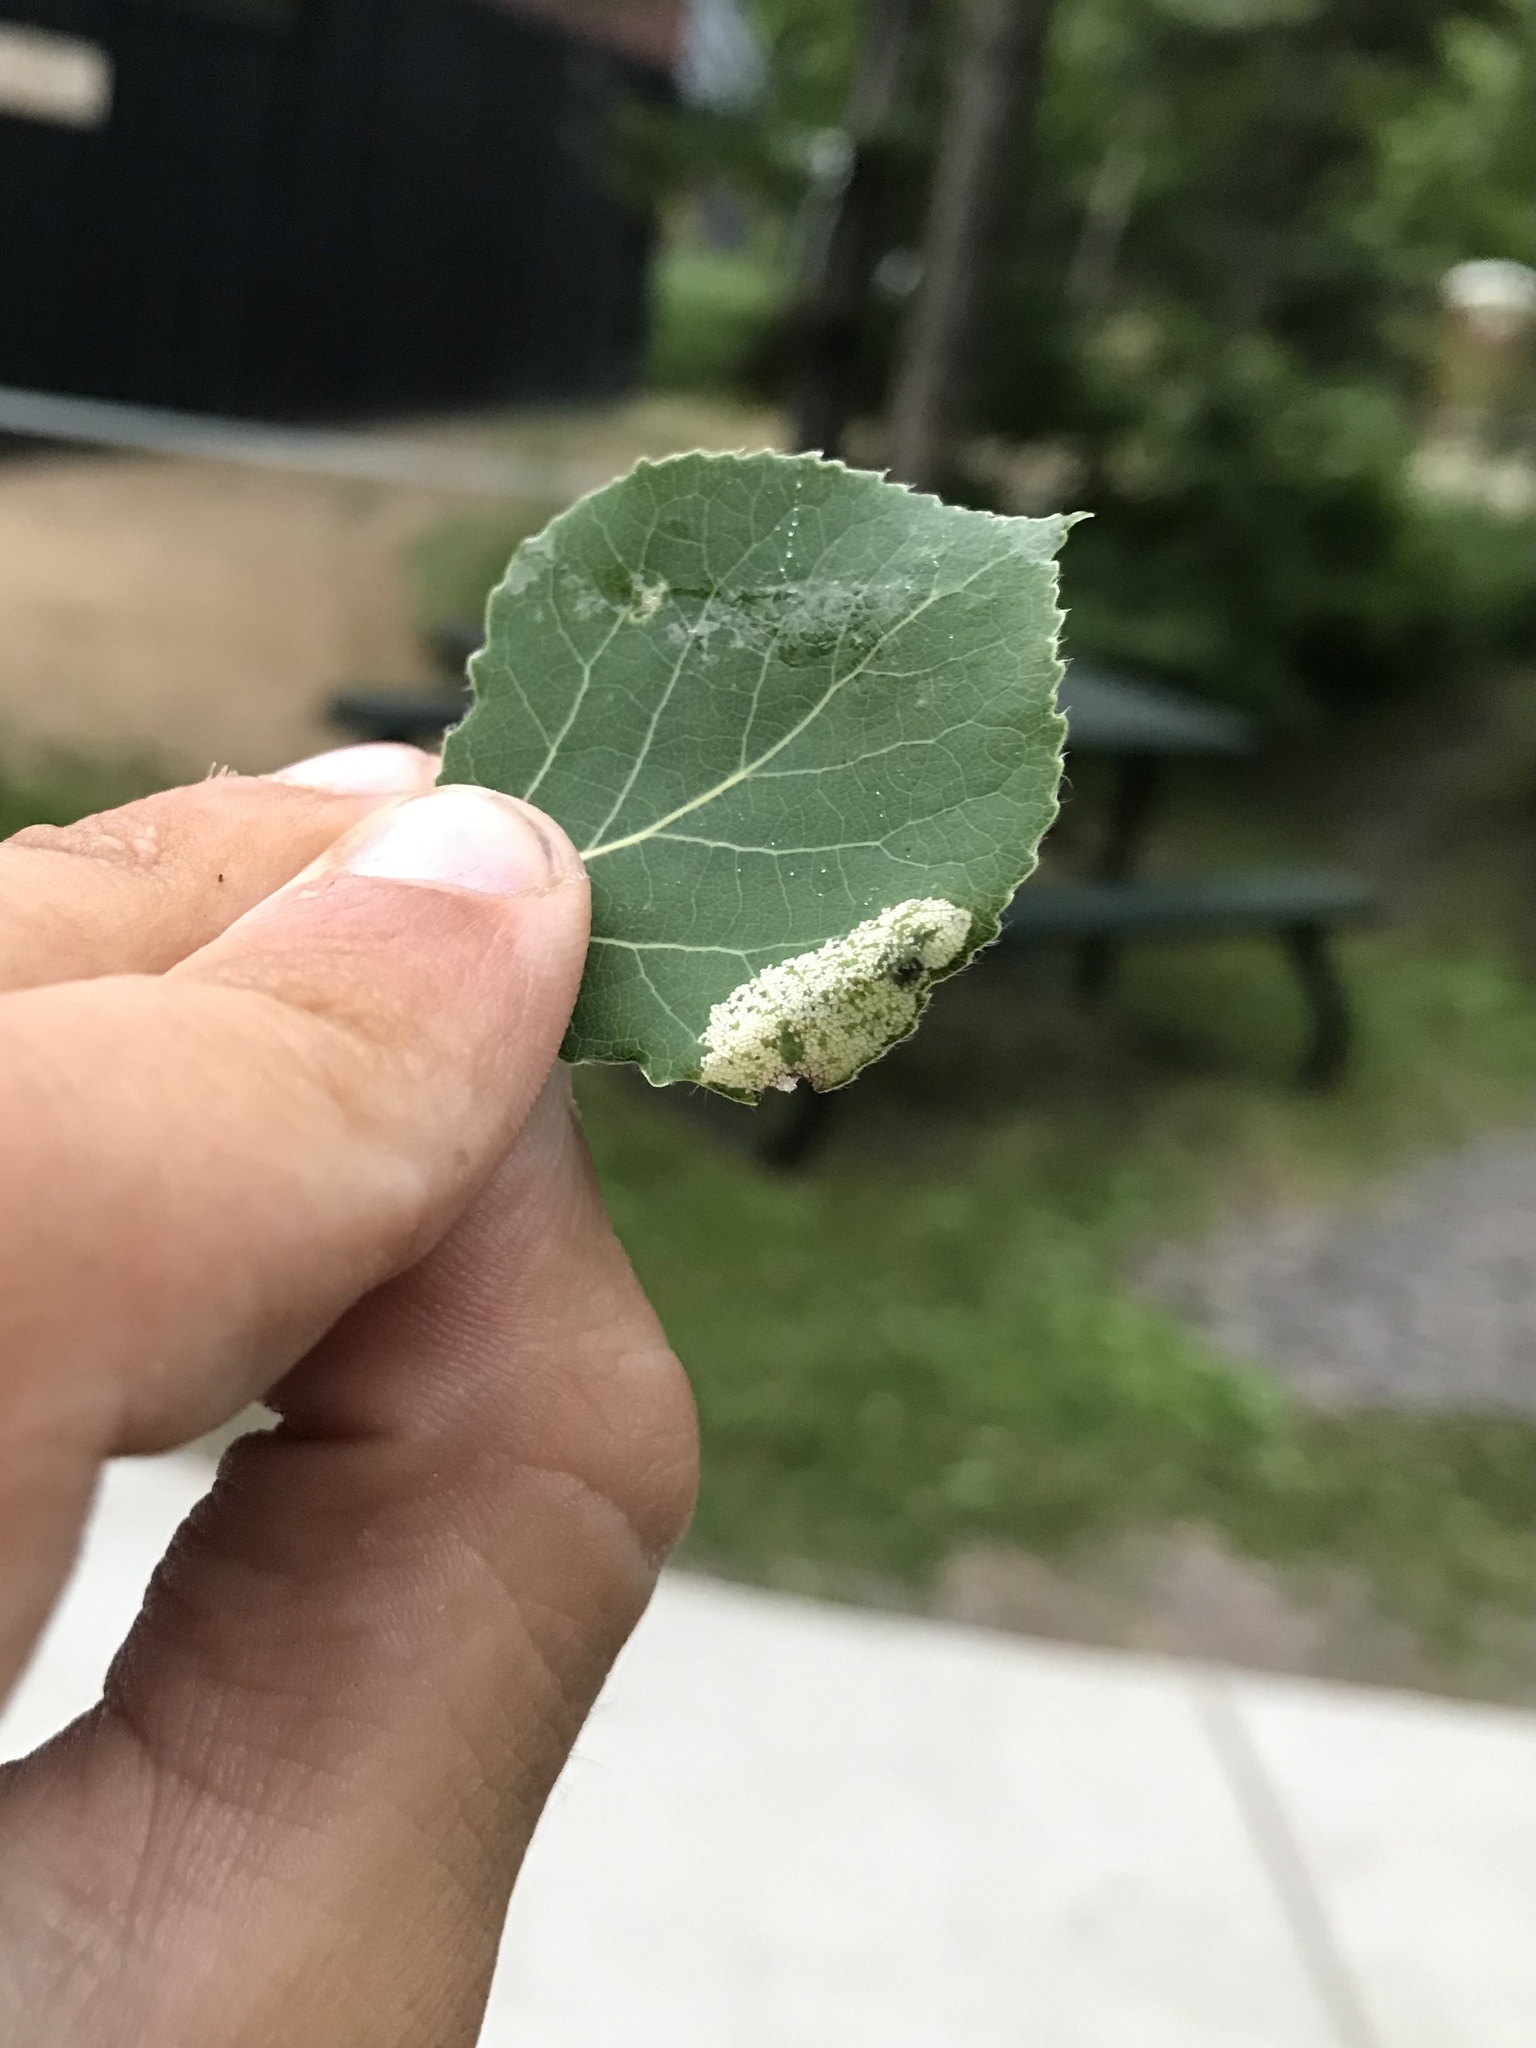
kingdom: Animalia
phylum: Arthropoda
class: Insecta
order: Lepidoptera
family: Gracillariidae
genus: Phyllonorycter
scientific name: Phyllonorycter apparella
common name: Aspen leaf blotch miner
